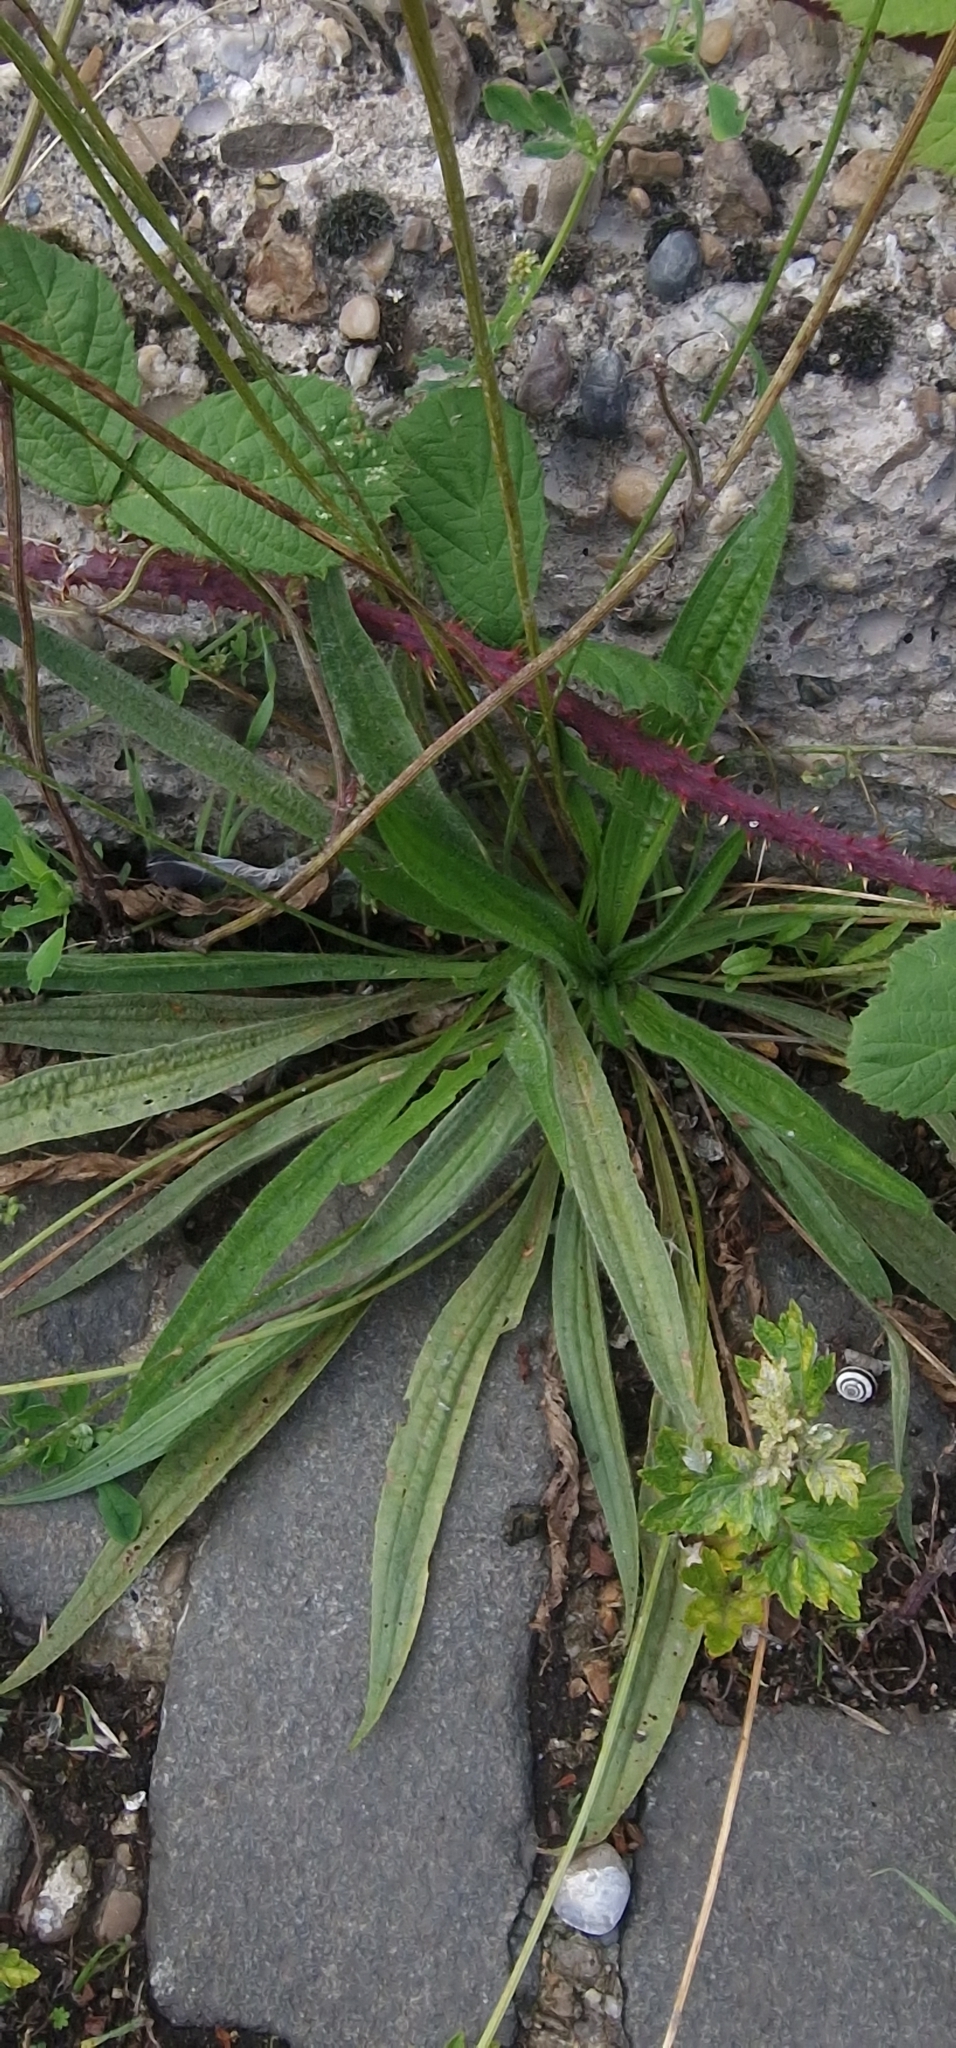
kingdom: Plantae
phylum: Tracheophyta
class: Magnoliopsida
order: Lamiales
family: Plantaginaceae
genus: Plantago
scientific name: Plantago lanceolata
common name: Ribwort plantain
